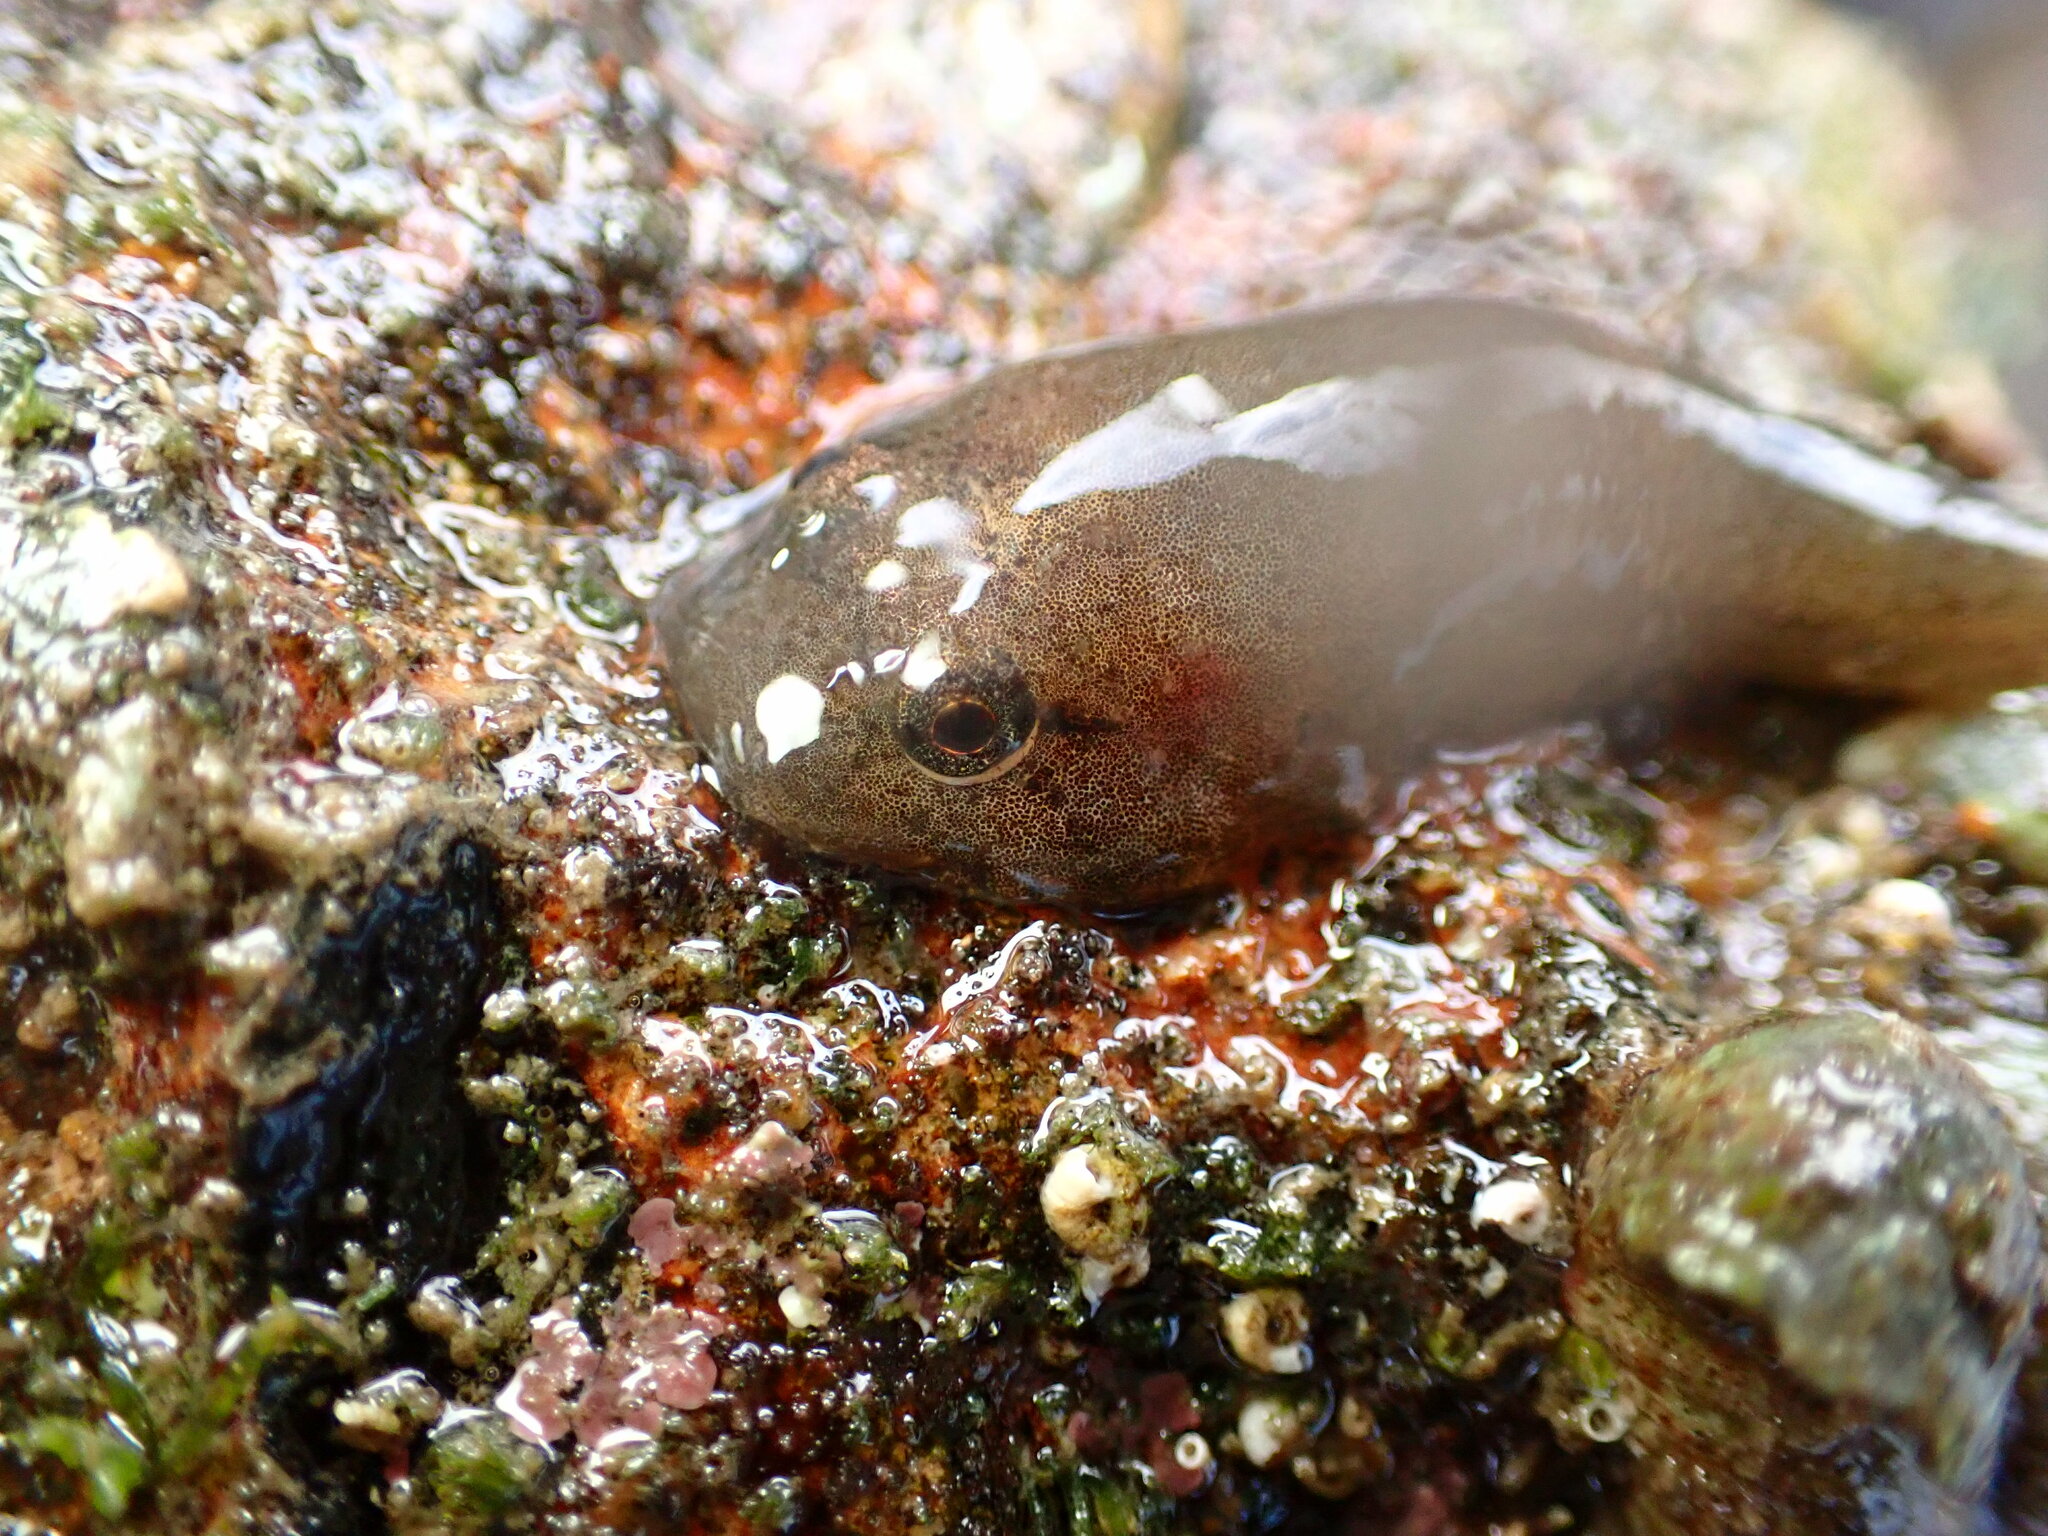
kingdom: Animalia
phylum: Chordata
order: Gobiesociformes
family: Gobiesocidae
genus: Gobiesox
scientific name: Gobiesox rhessodon
